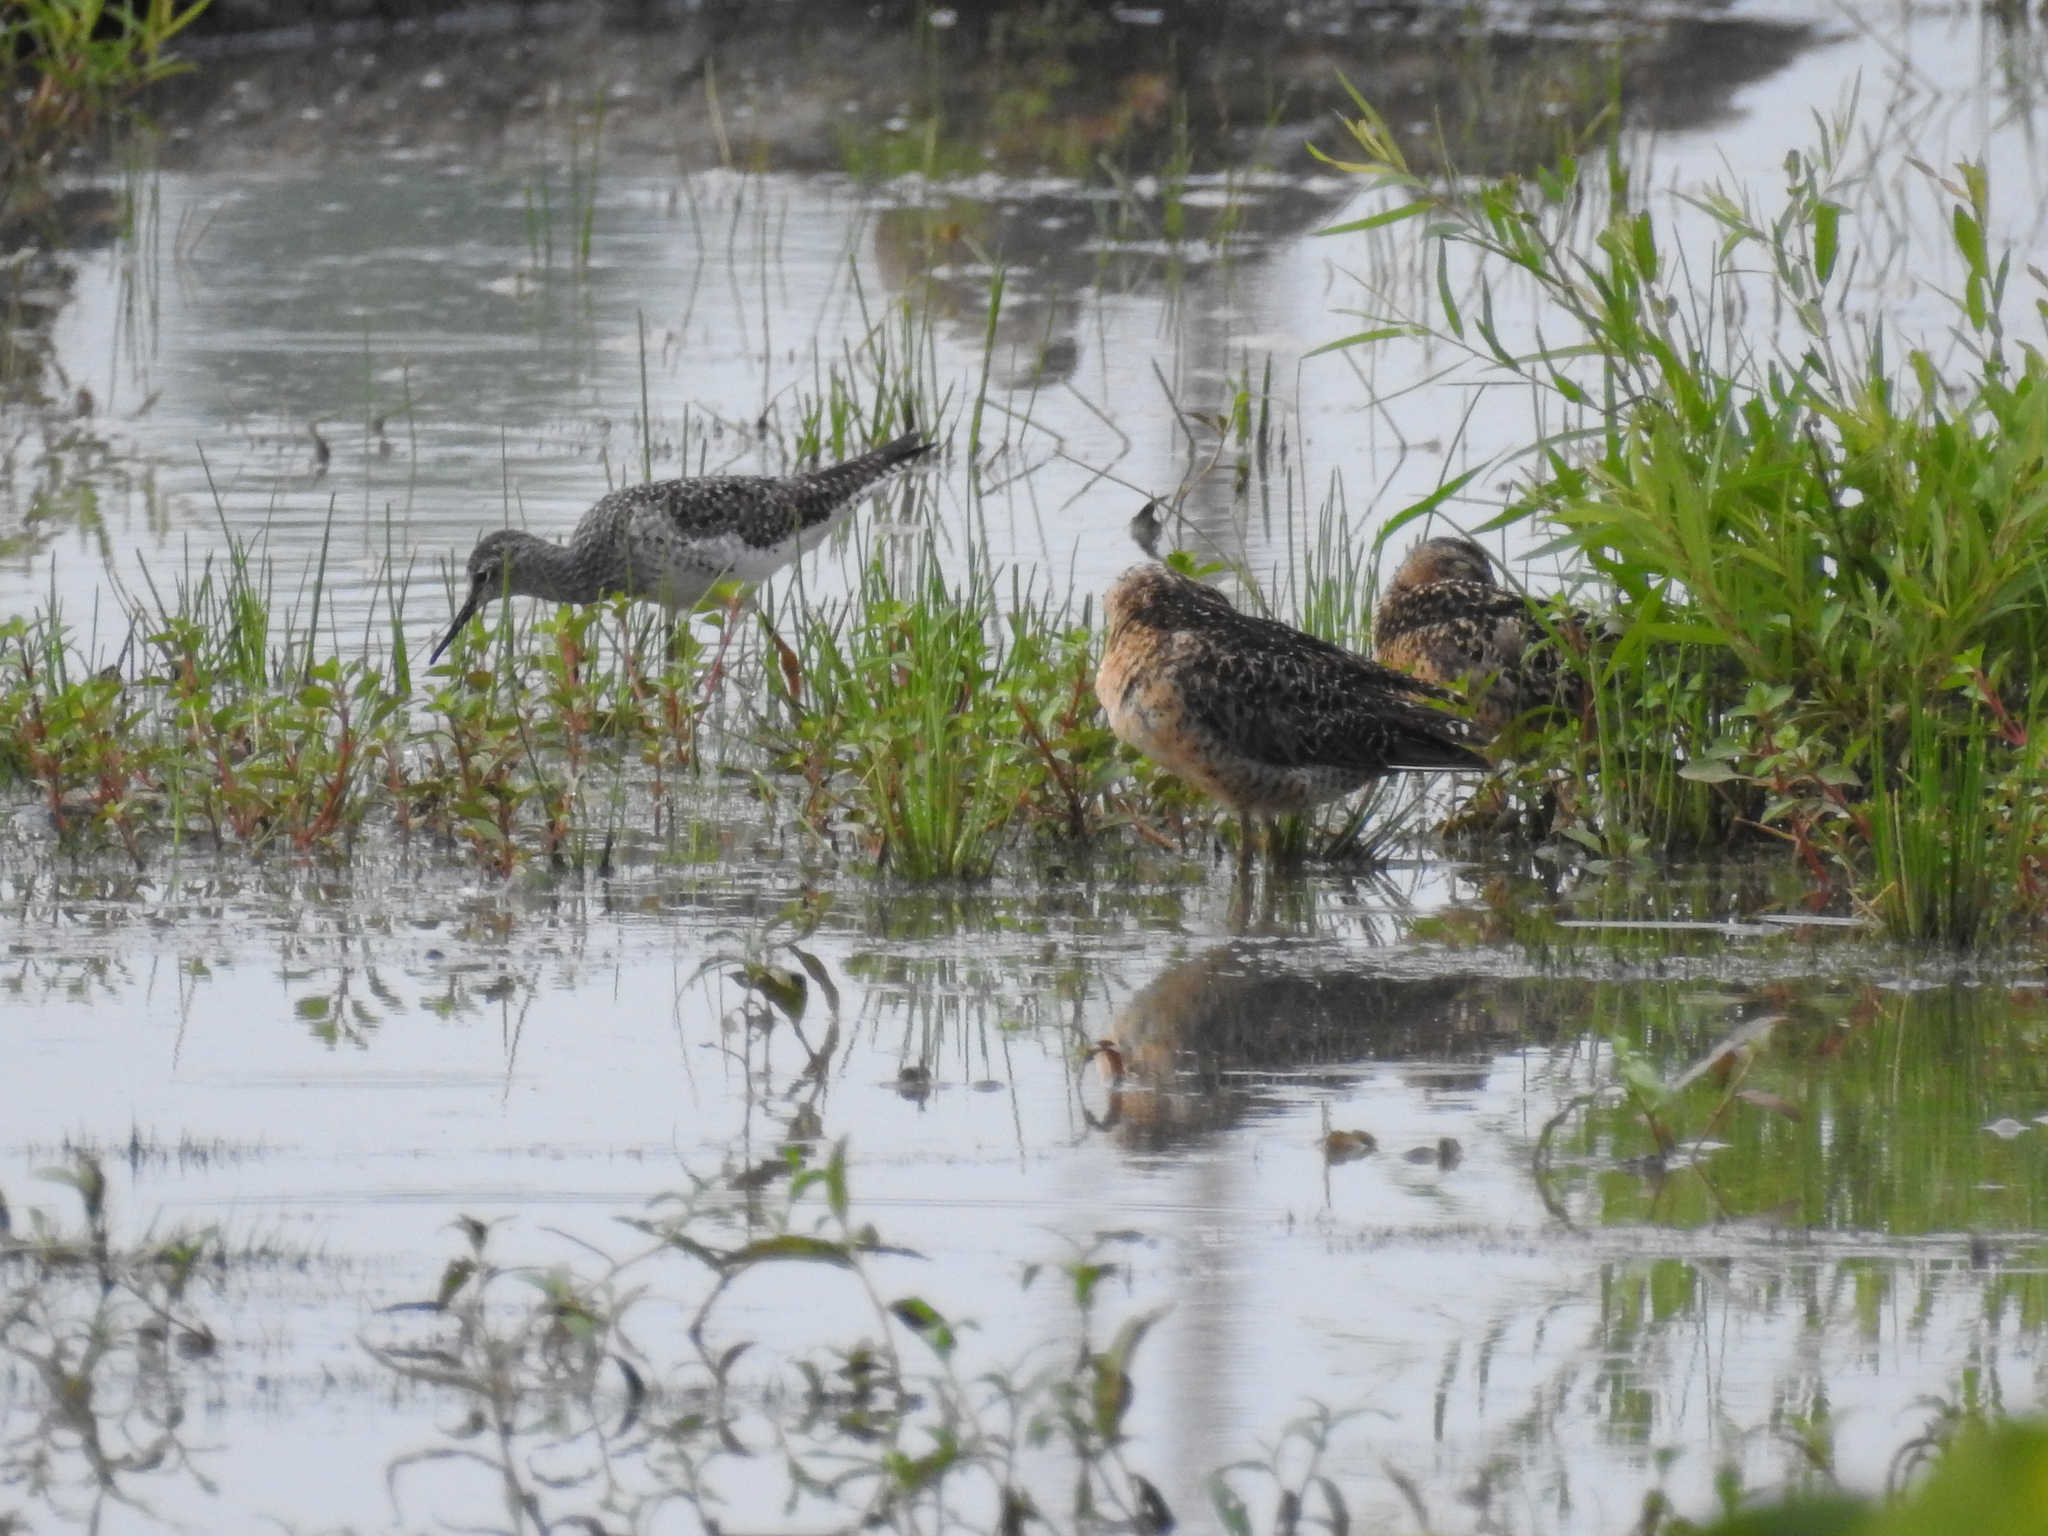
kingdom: Animalia
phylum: Chordata
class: Aves
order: Charadriiformes
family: Scolopacidae
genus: Limnodromus
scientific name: Limnodromus griseus
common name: Short-billed dowitcher
